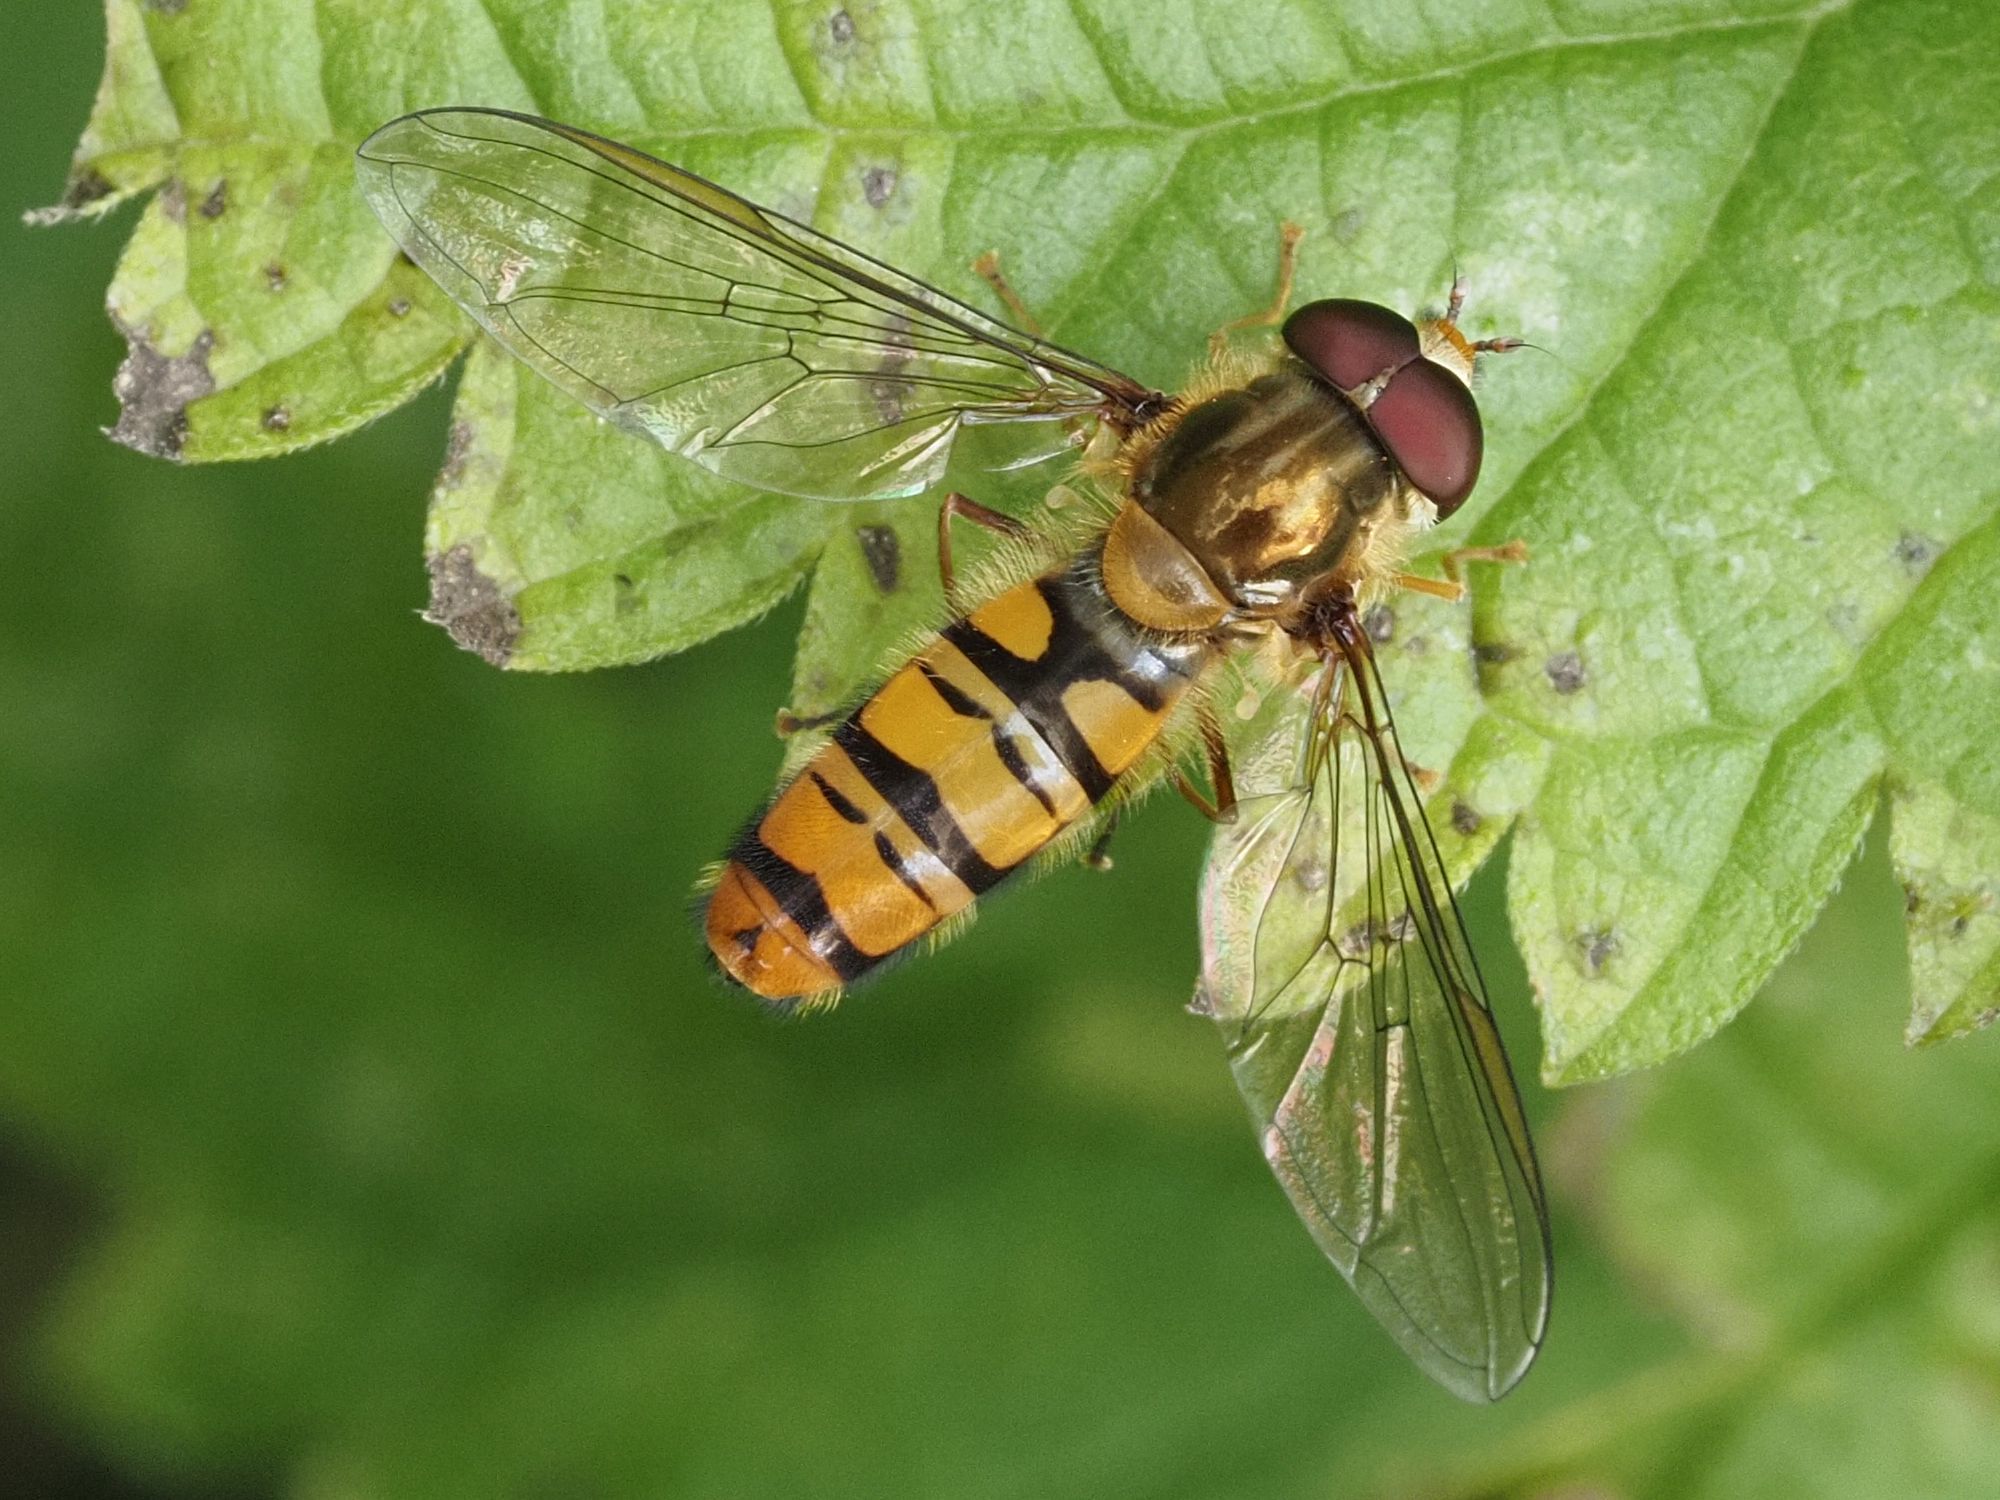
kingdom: Animalia
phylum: Arthropoda
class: Insecta
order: Diptera
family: Syrphidae
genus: Episyrphus
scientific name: Episyrphus balteatus
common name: Marmalade hoverfly
